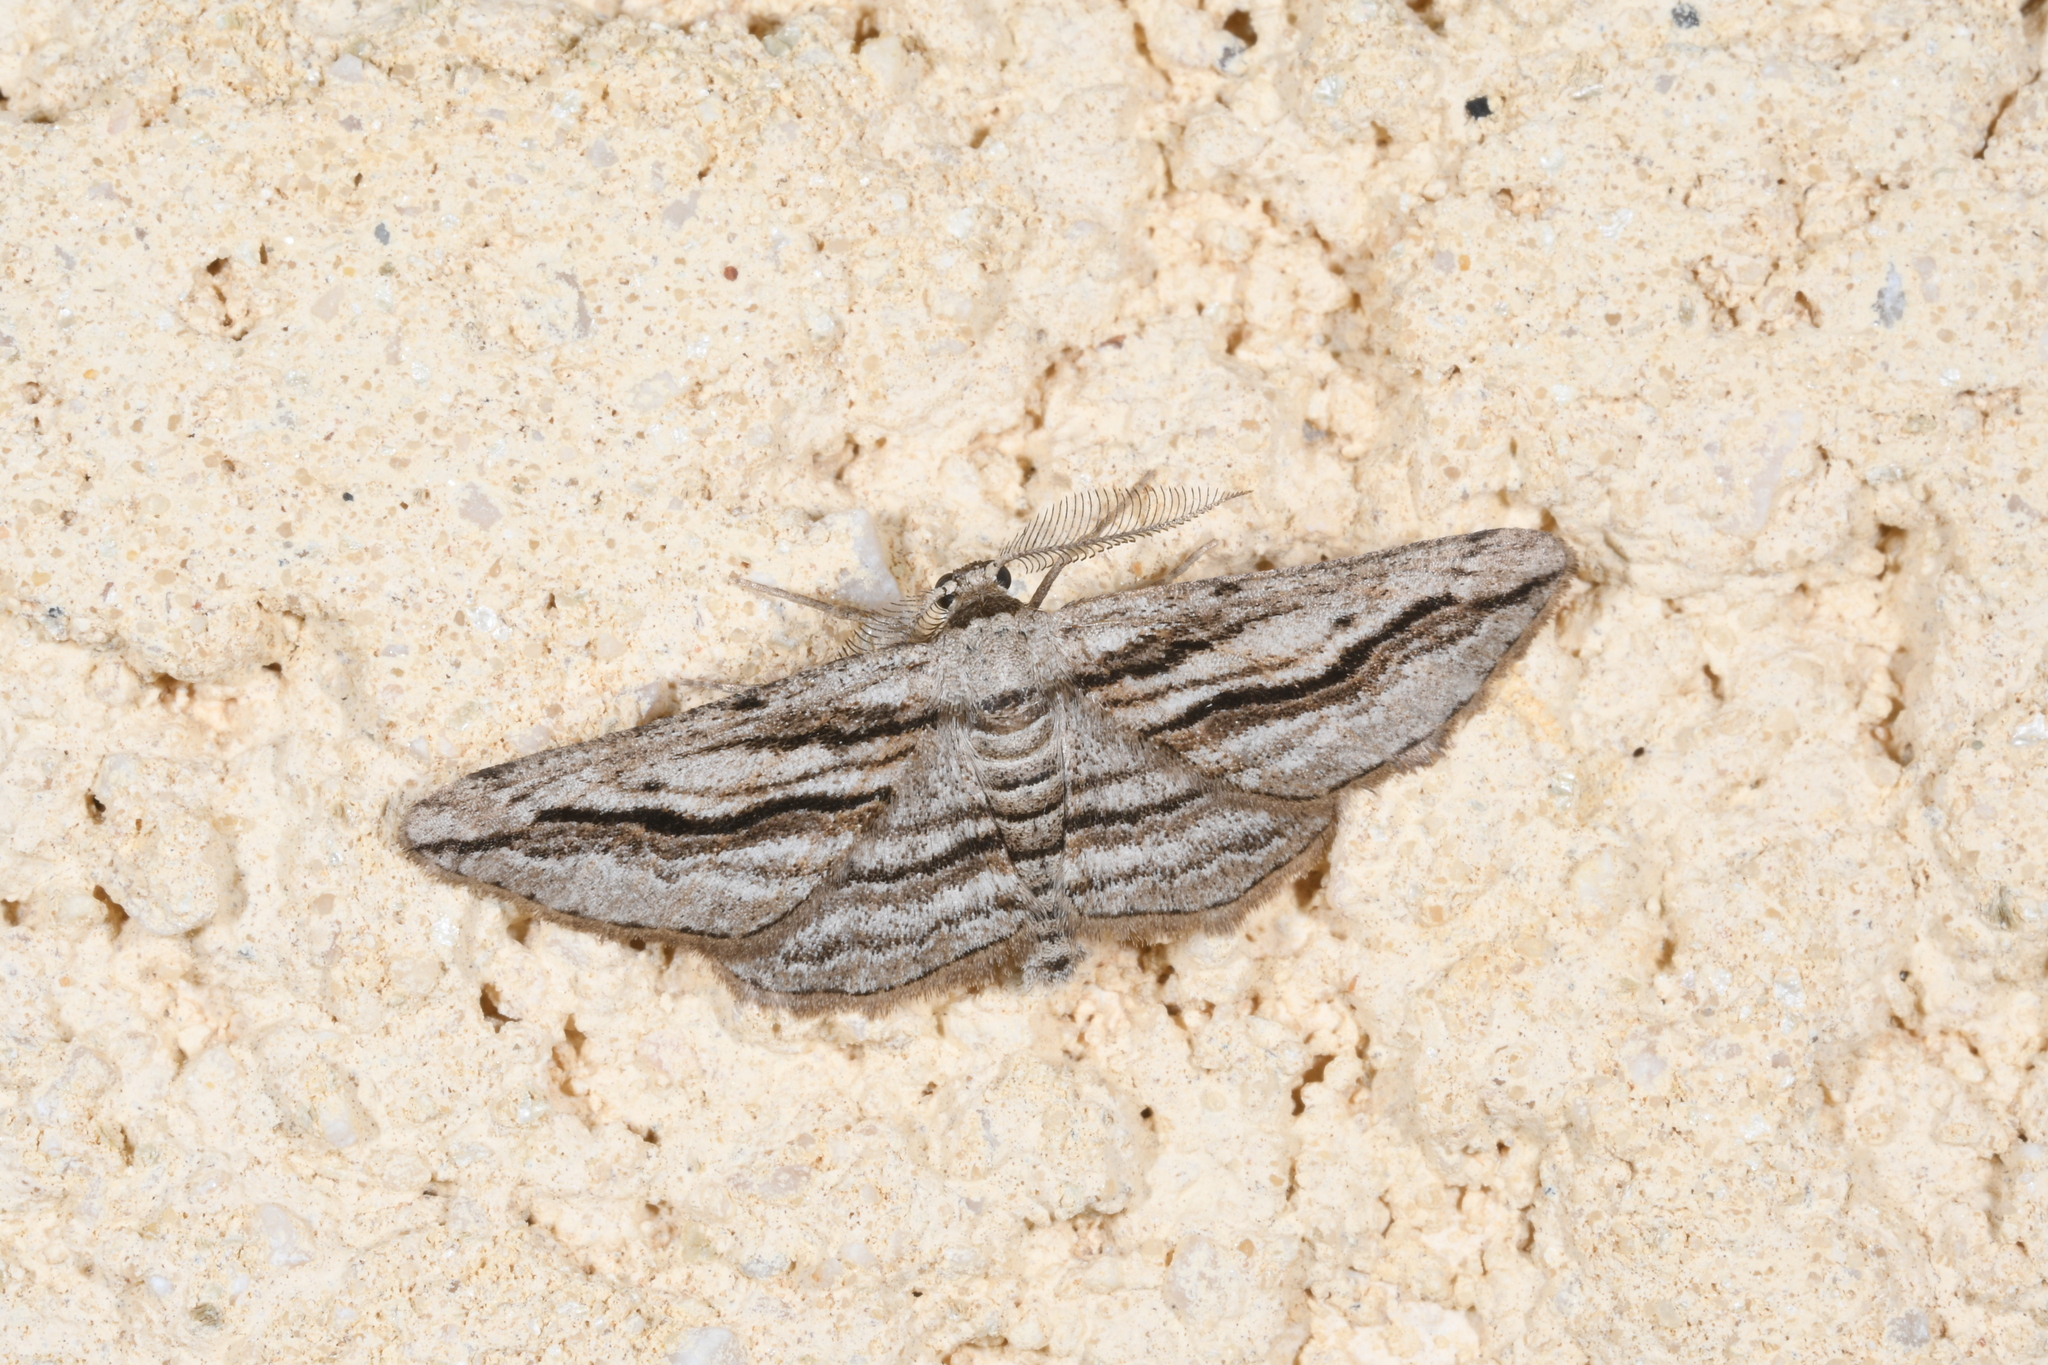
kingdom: Animalia
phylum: Arthropoda
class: Insecta
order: Lepidoptera
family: Geometridae
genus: Ecleora
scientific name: Ecleora solieraria
